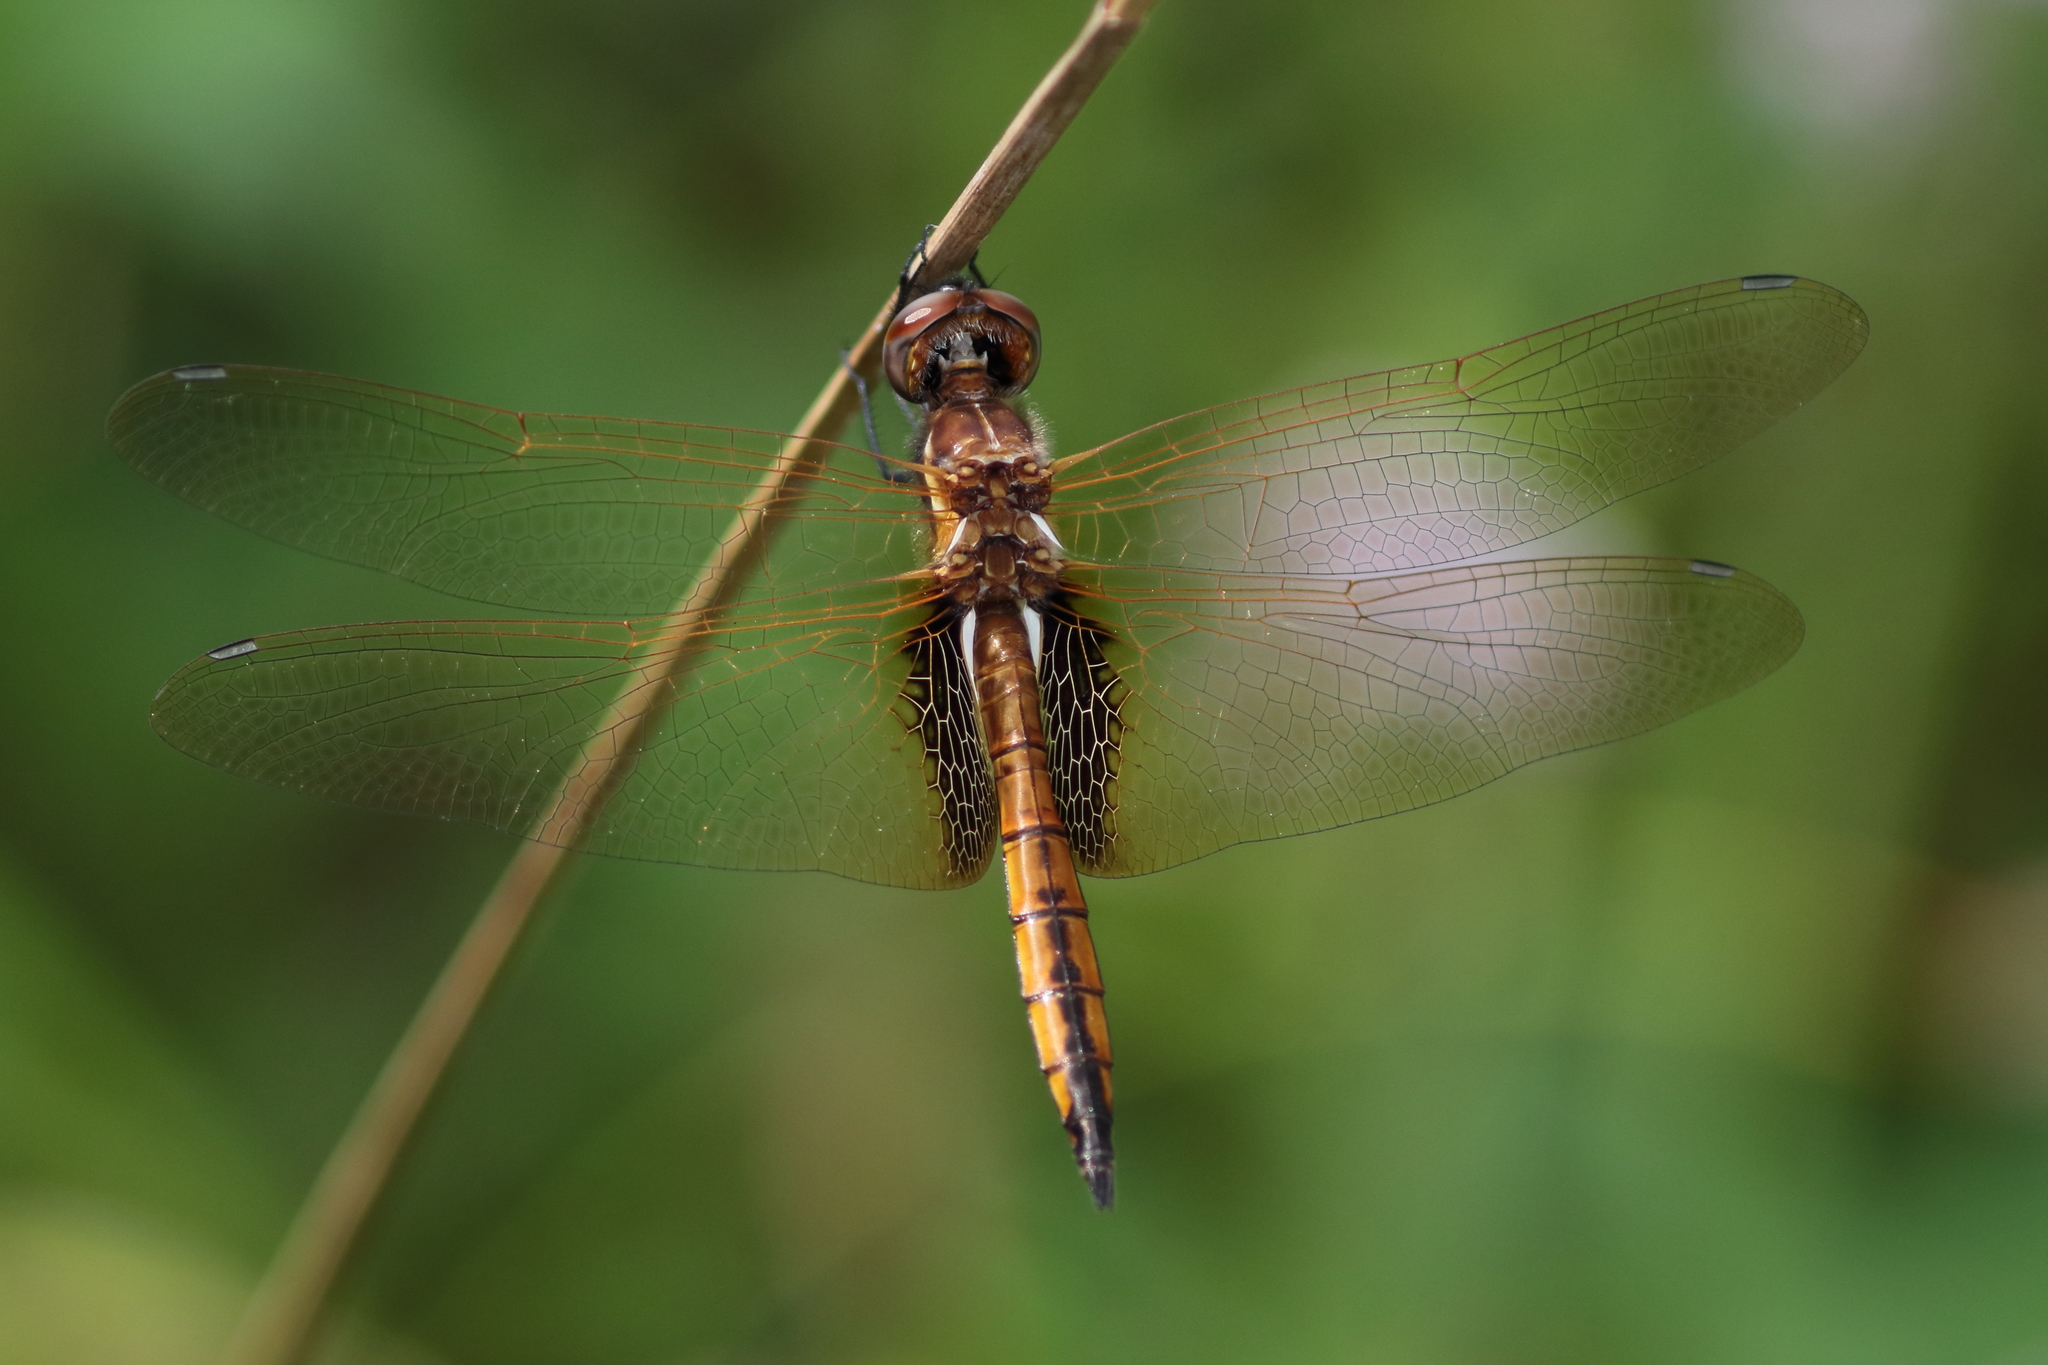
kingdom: Animalia
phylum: Arthropoda
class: Insecta
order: Odonata
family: Libellulidae
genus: Miathyria
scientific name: Miathyria marcella
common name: Hyacinth glider
